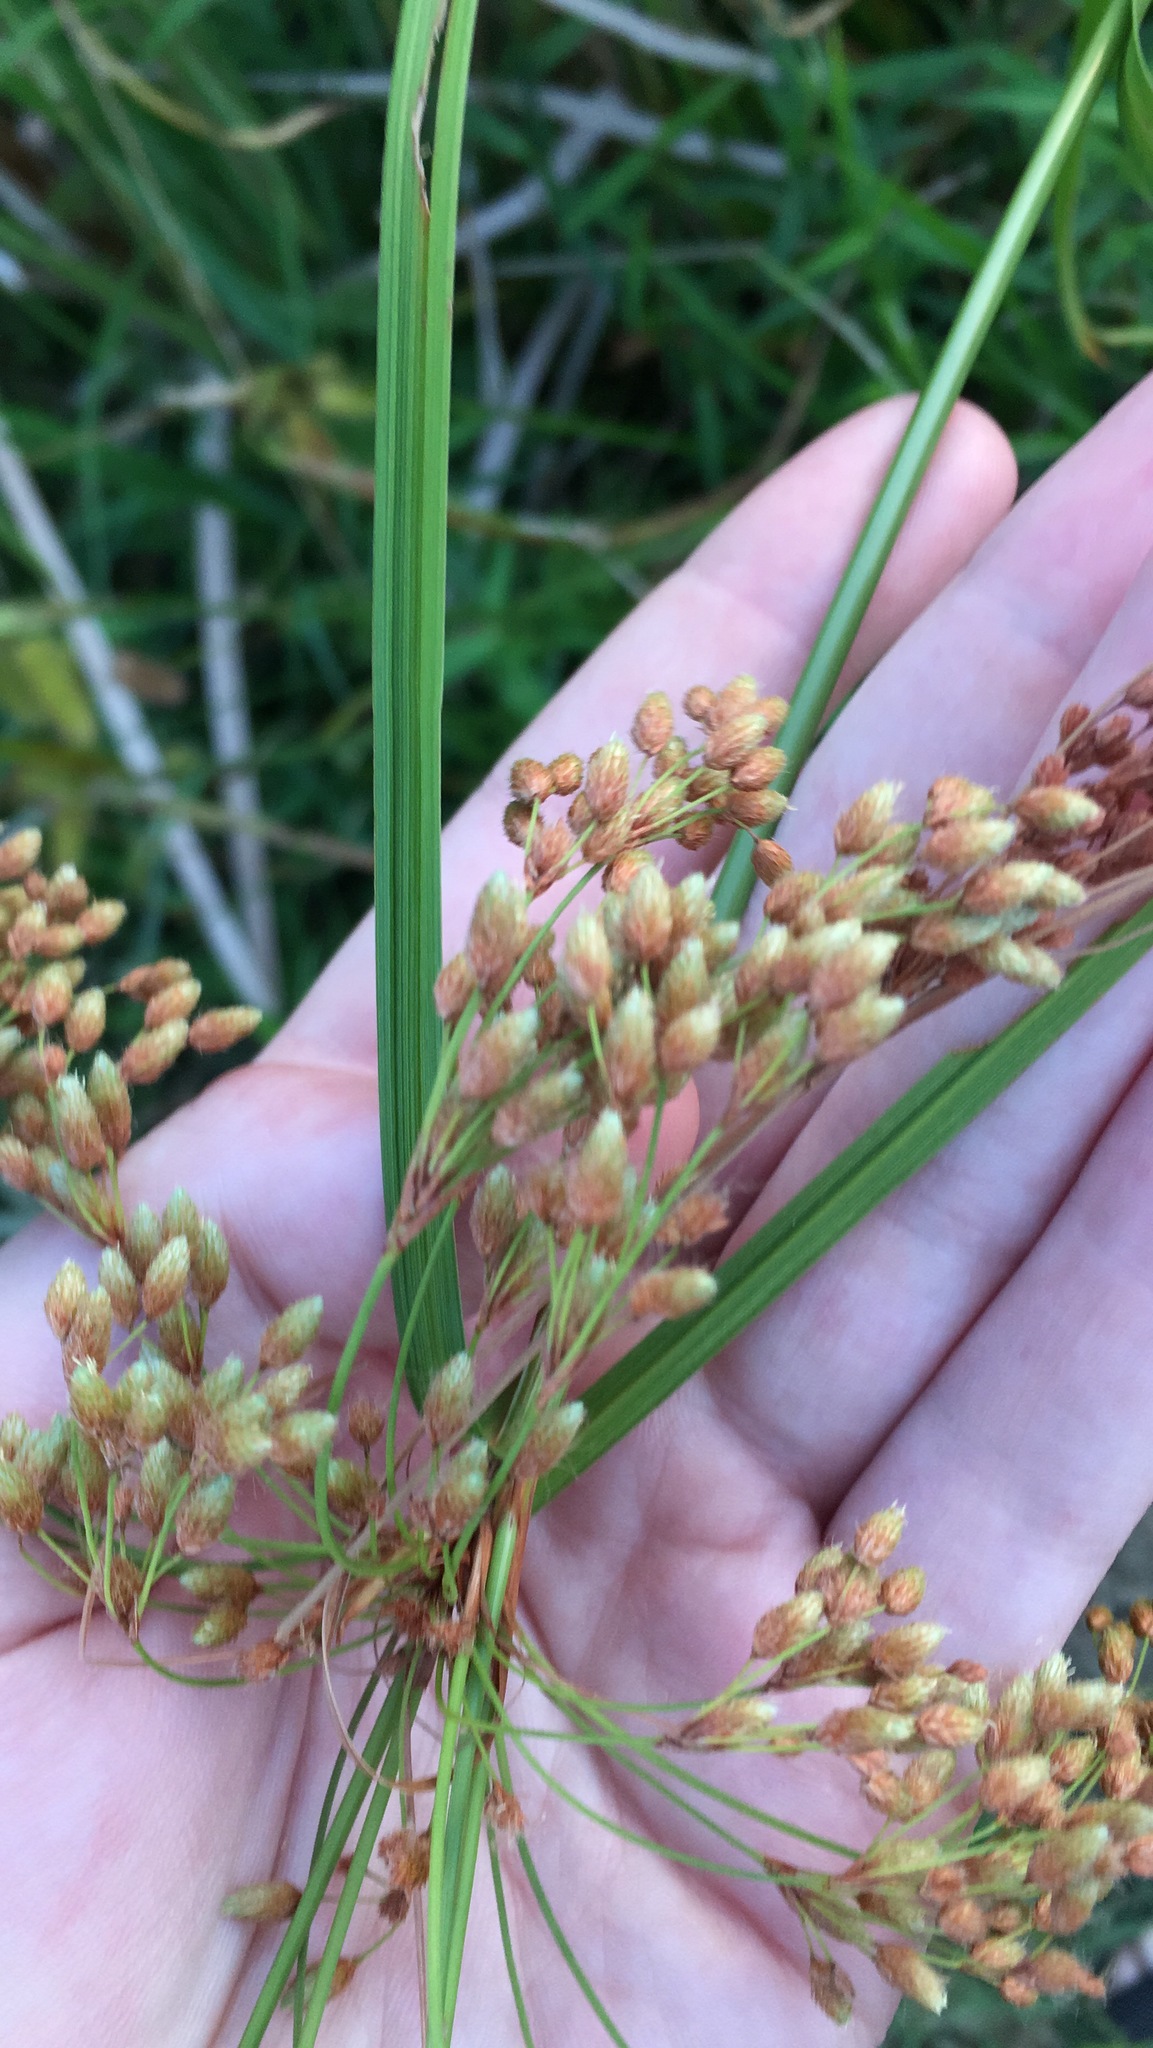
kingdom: Plantae
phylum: Tracheophyta
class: Liliopsida
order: Poales
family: Cyperaceae
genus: Scirpus
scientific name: Scirpus cyperinus
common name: Black-sheathed bulrush
